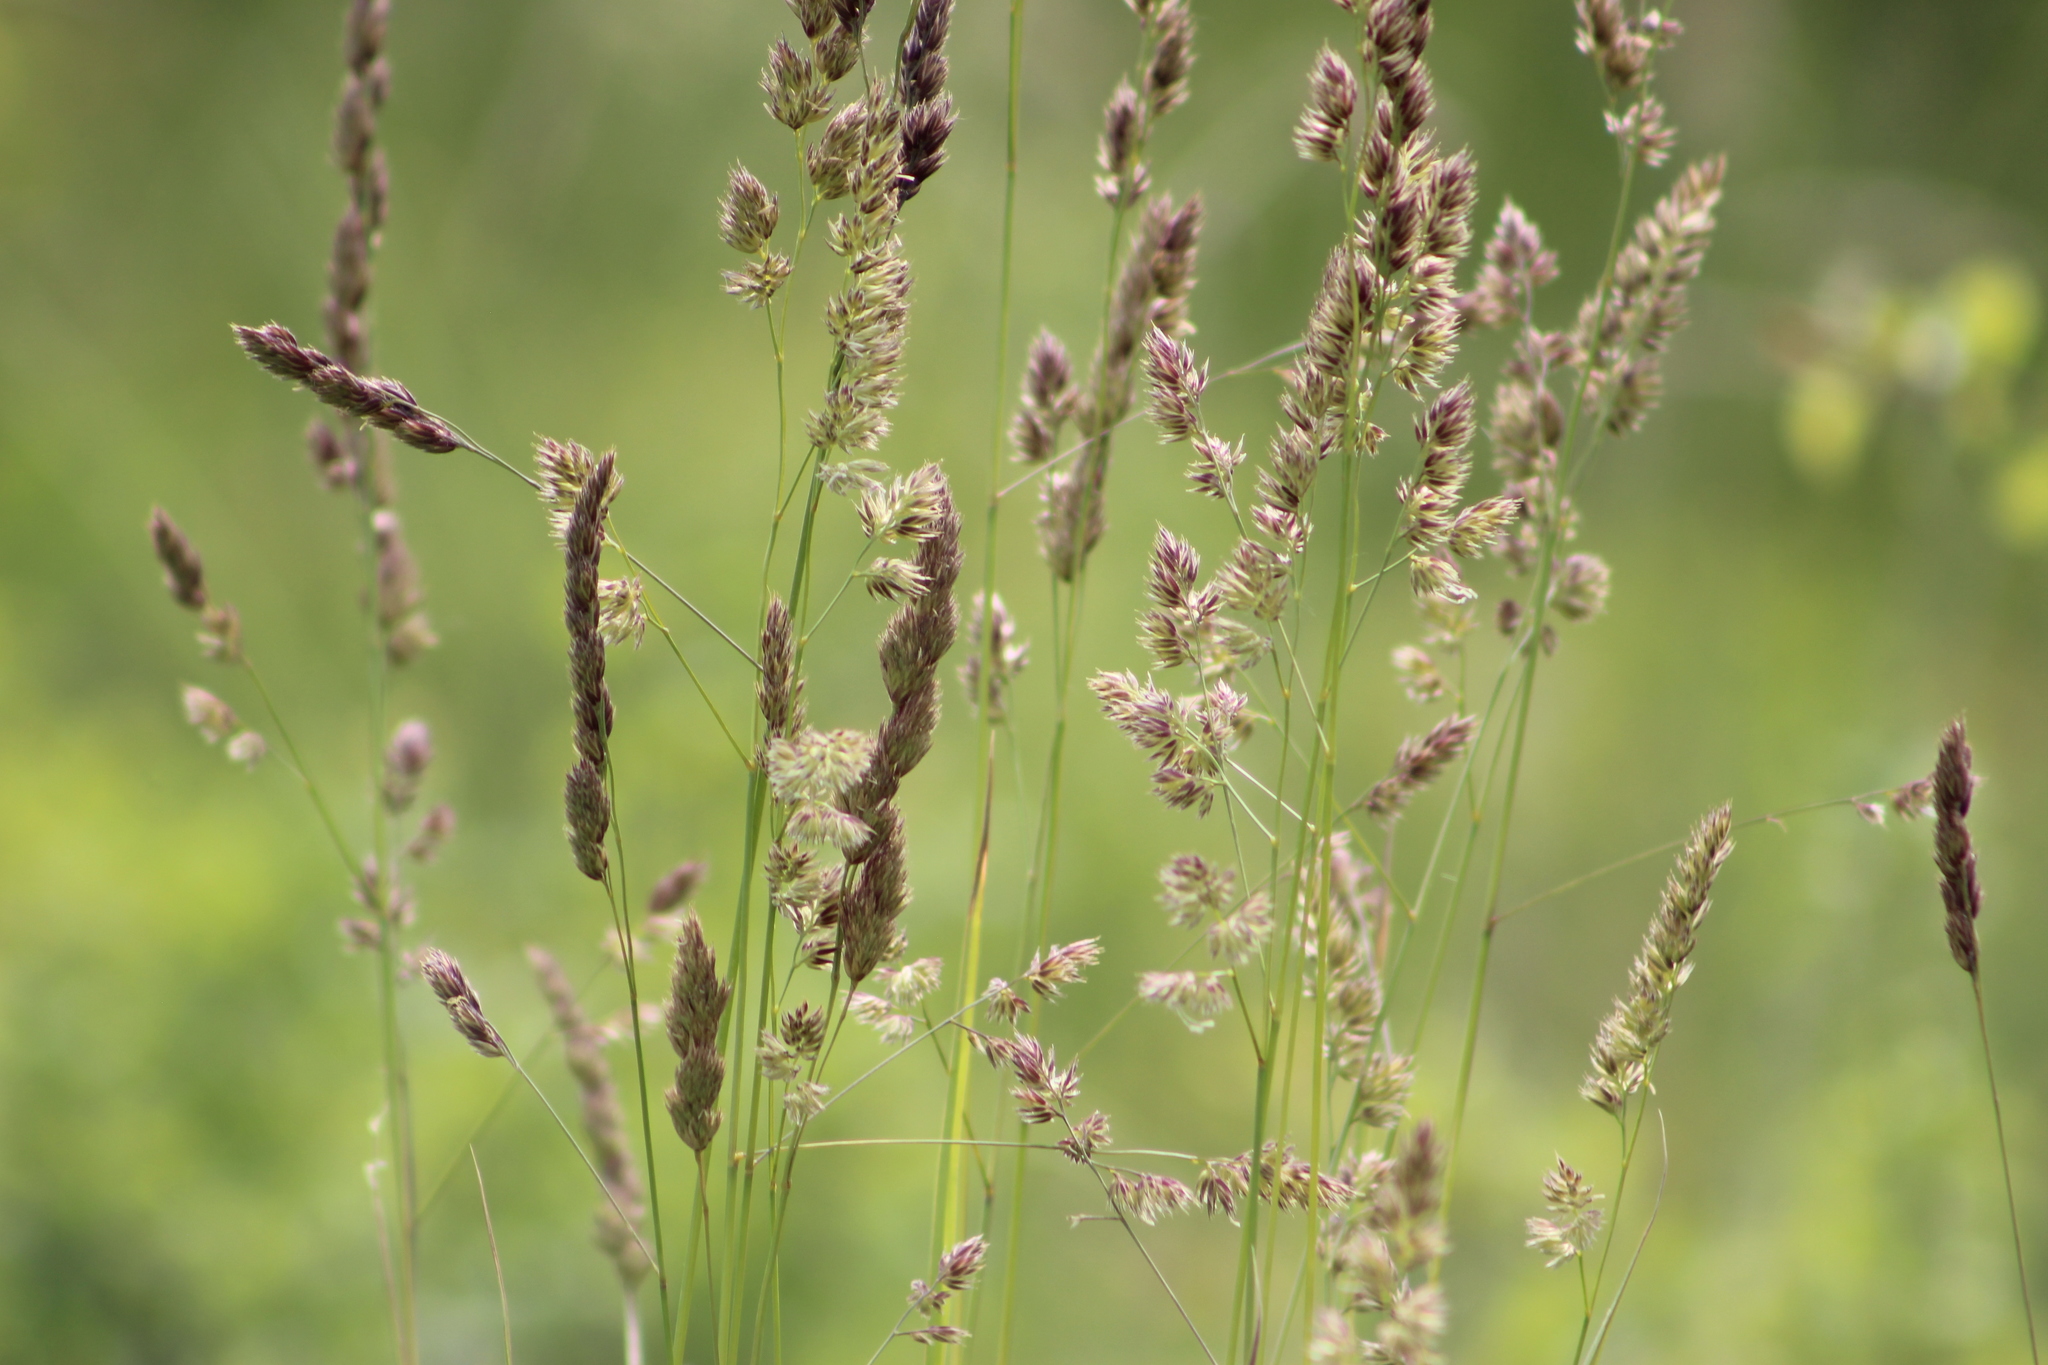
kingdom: Plantae
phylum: Tracheophyta
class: Liliopsida
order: Poales
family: Poaceae
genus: Dactylis
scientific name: Dactylis glomerata
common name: Orchardgrass
